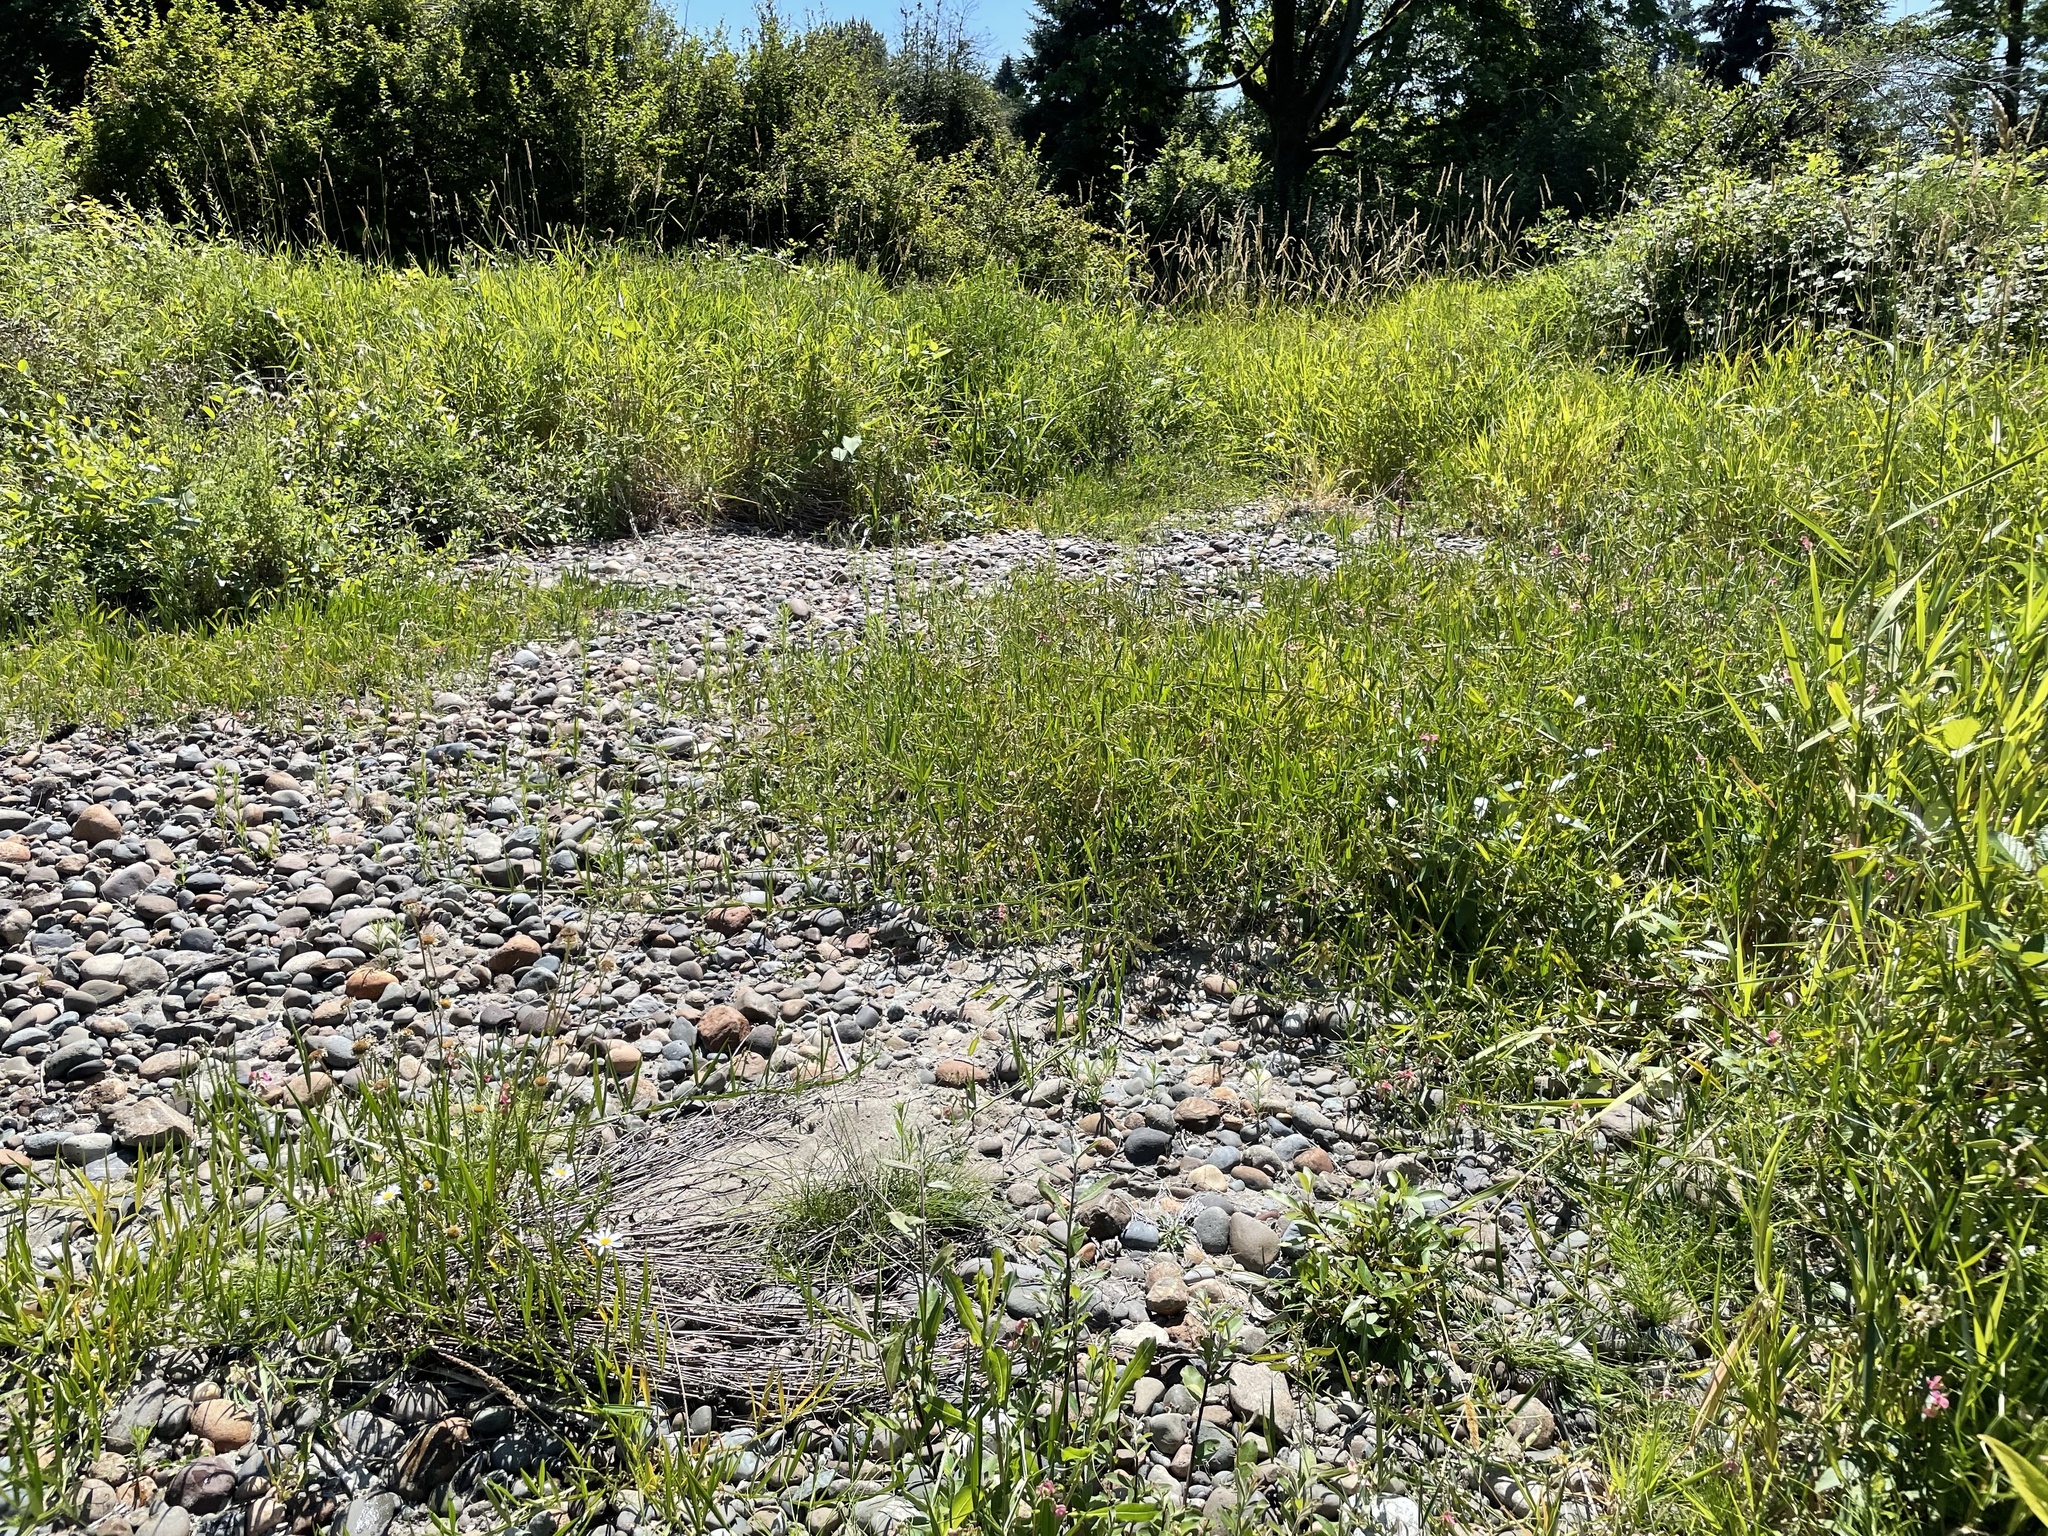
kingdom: Plantae
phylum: Tracheophyta
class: Magnoliopsida
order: Fabales
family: Fabaceae
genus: Lathyrus
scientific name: Lathyrus sylvestris
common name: Flat pea
